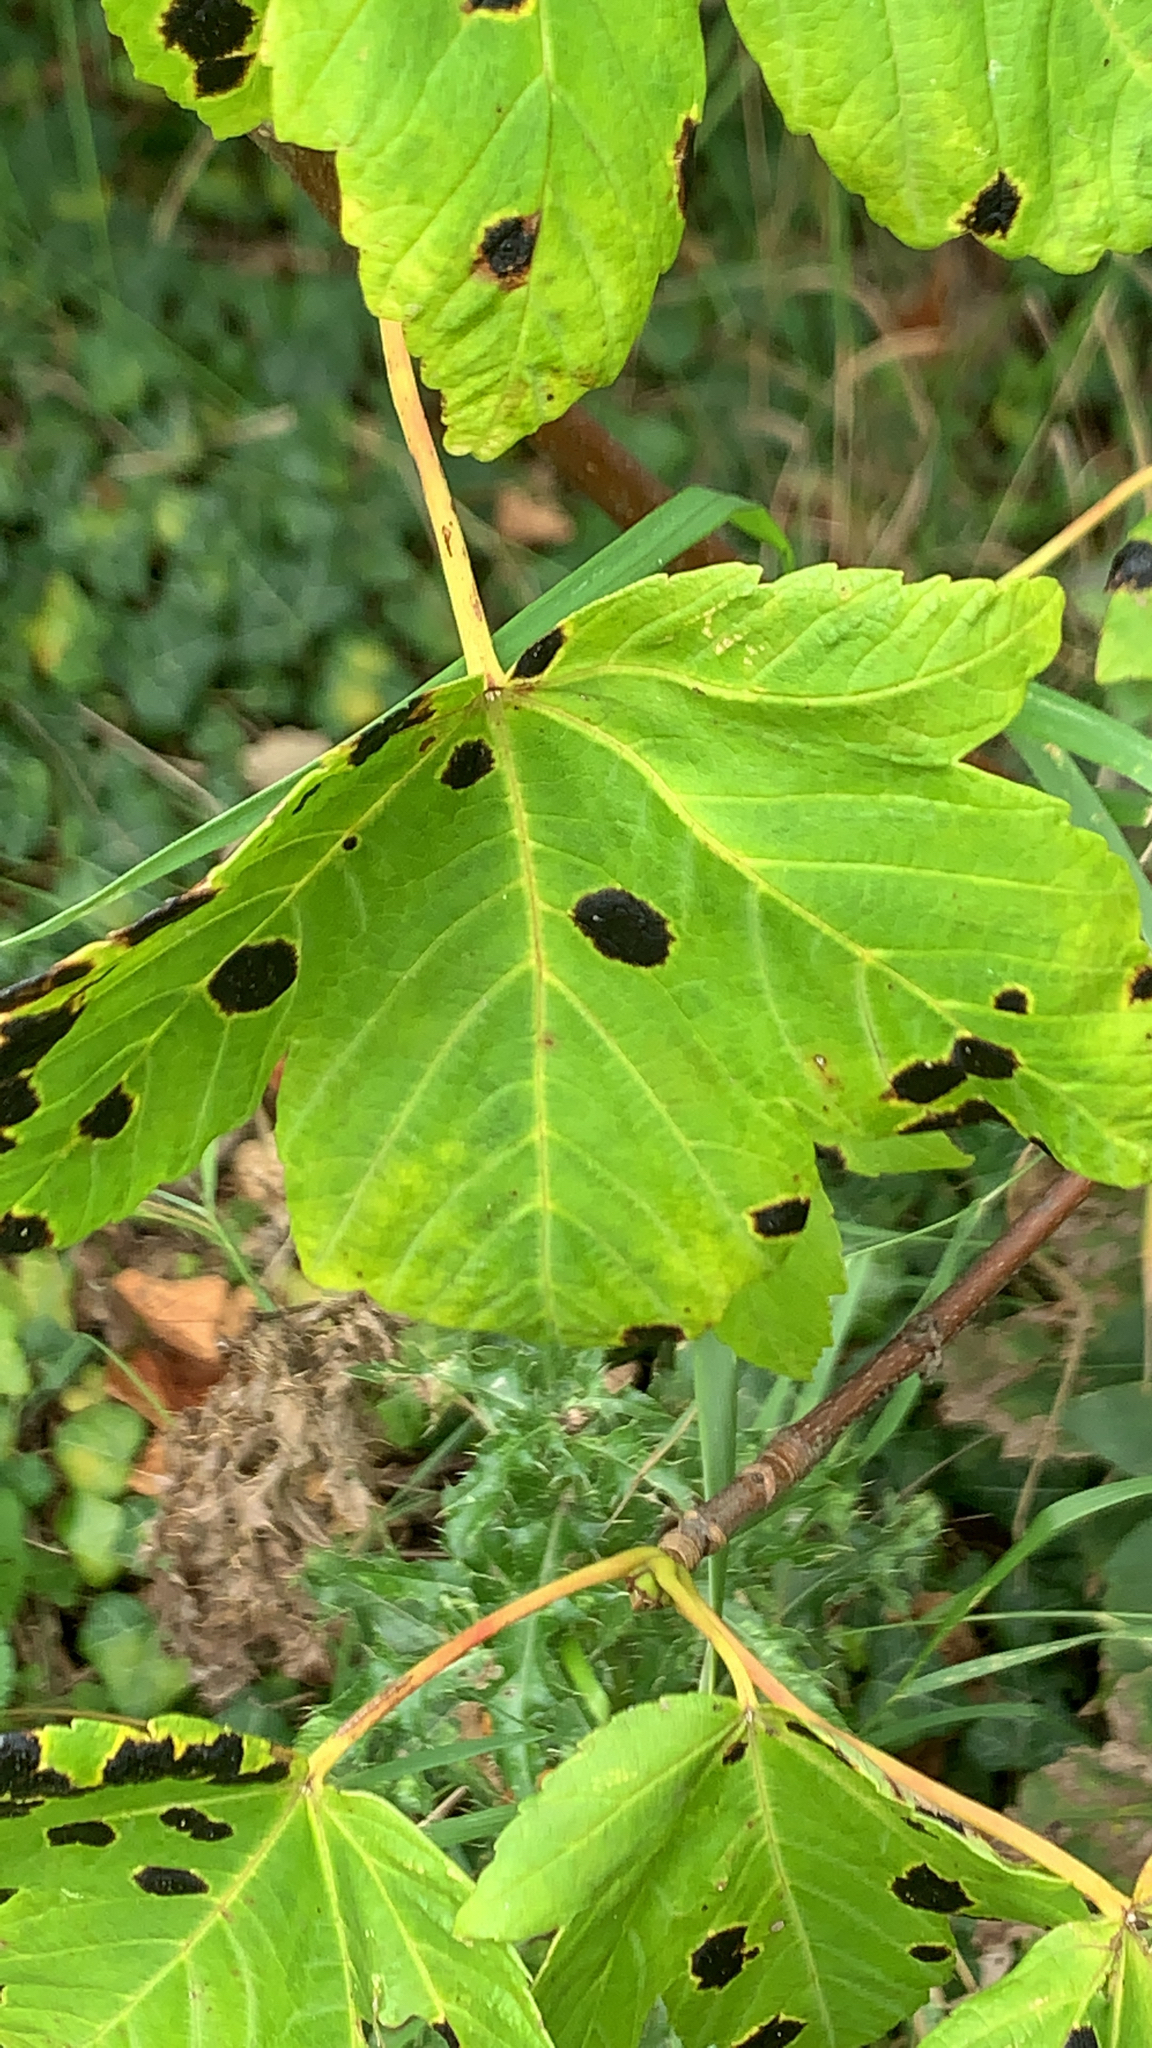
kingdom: Fungi
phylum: Ascomycota
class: Leotiomycetes
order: Rhytismatales
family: Rhytismataceae
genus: Rhytisma
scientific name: Rhytisma acerinum
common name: European tar spot
